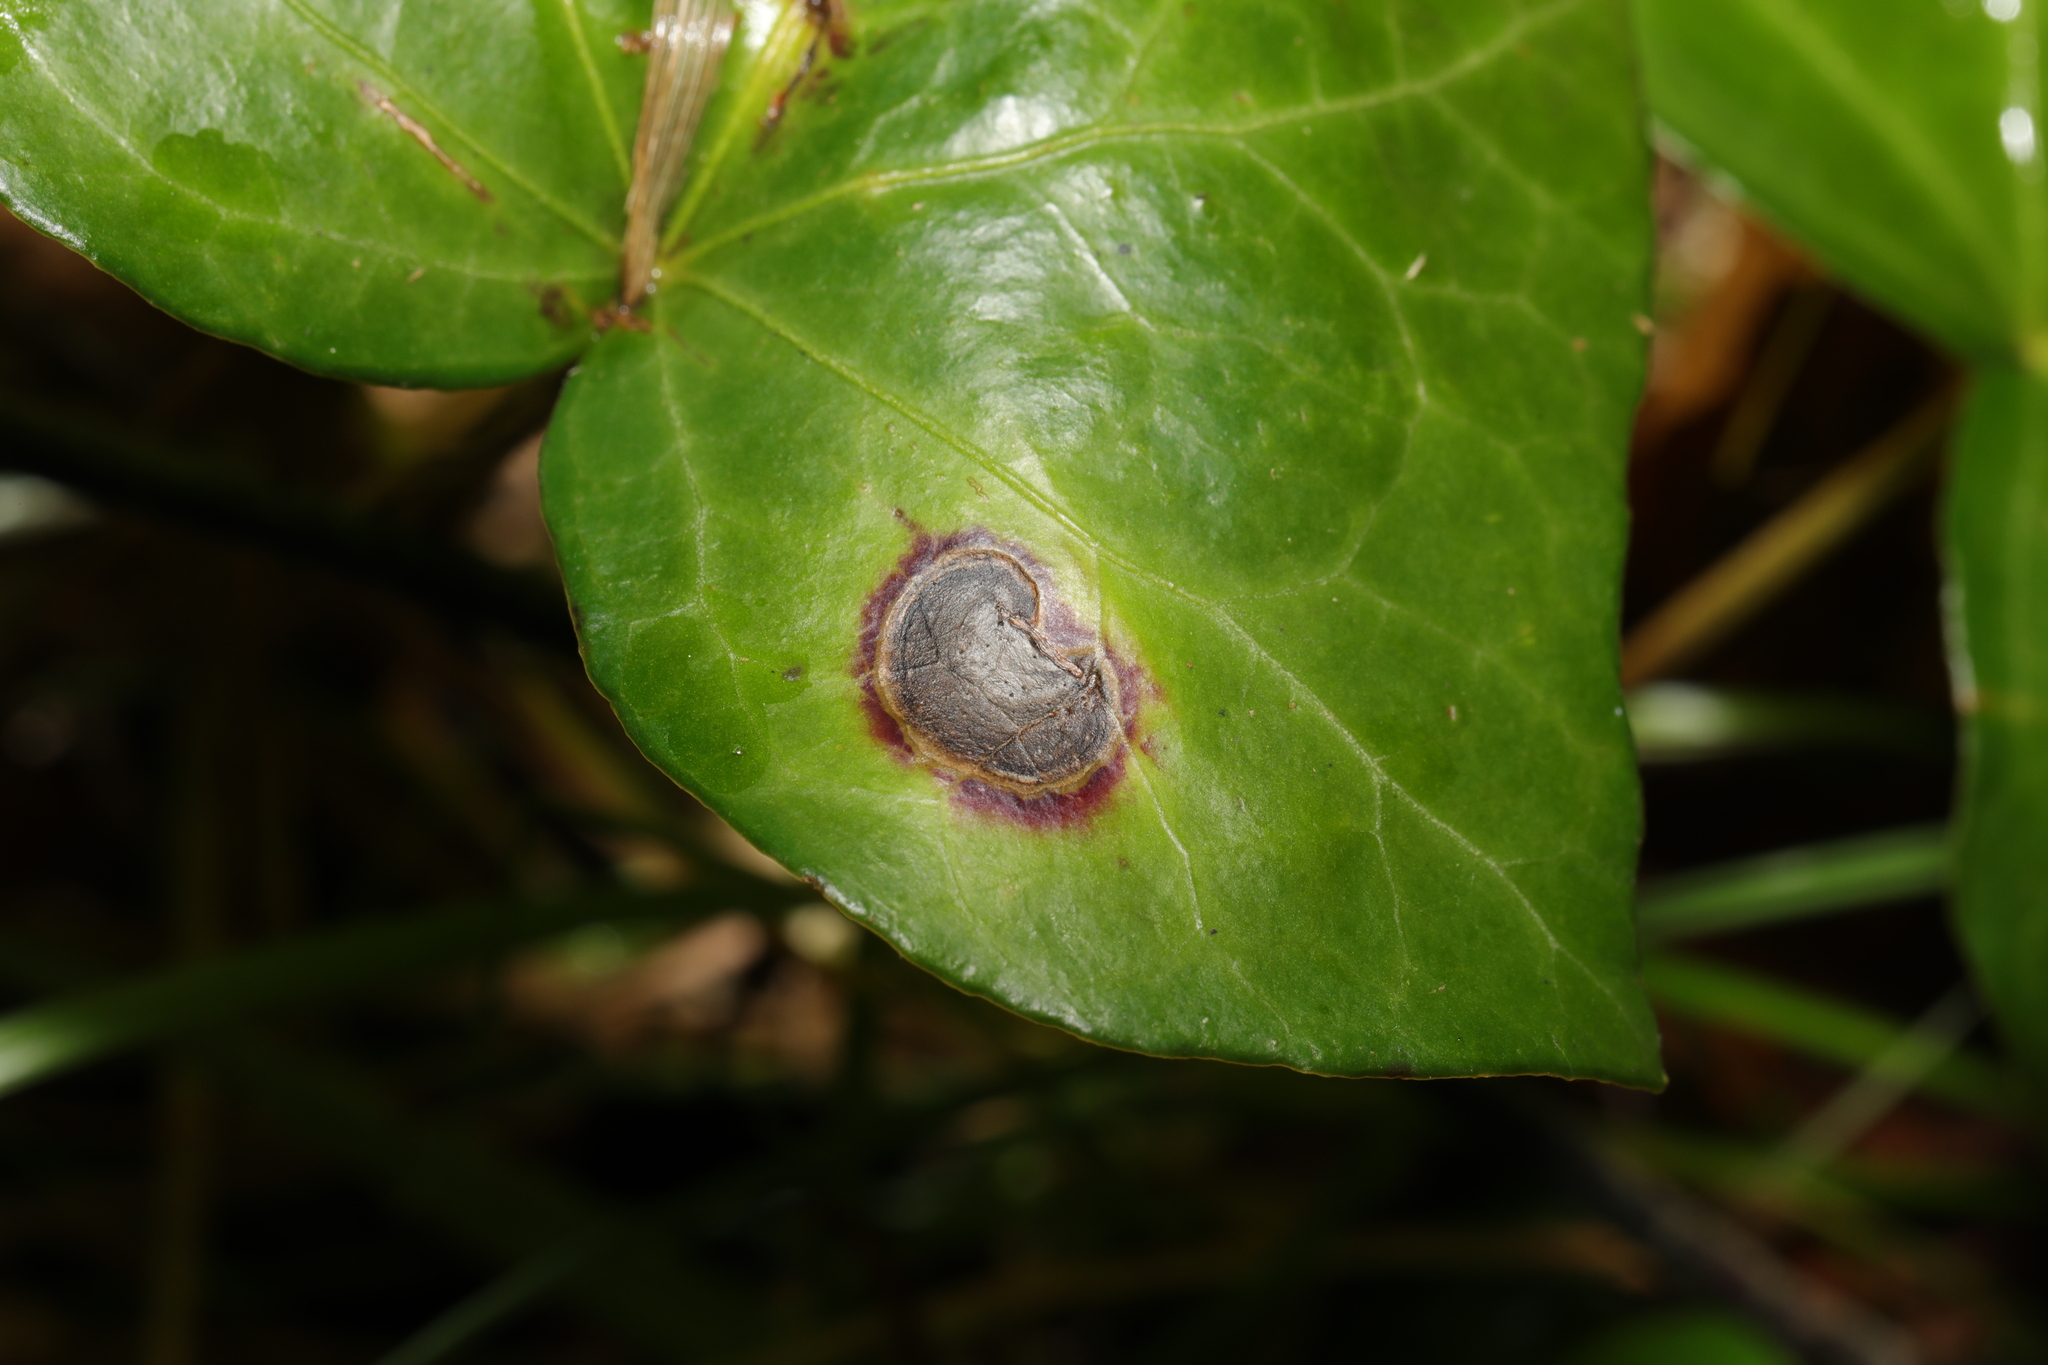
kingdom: Fungi
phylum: Ascomycota
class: Dothideomycetes
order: Pleosporales
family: Didymellaceae
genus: Boeremia
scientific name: Boeremia hedericola
